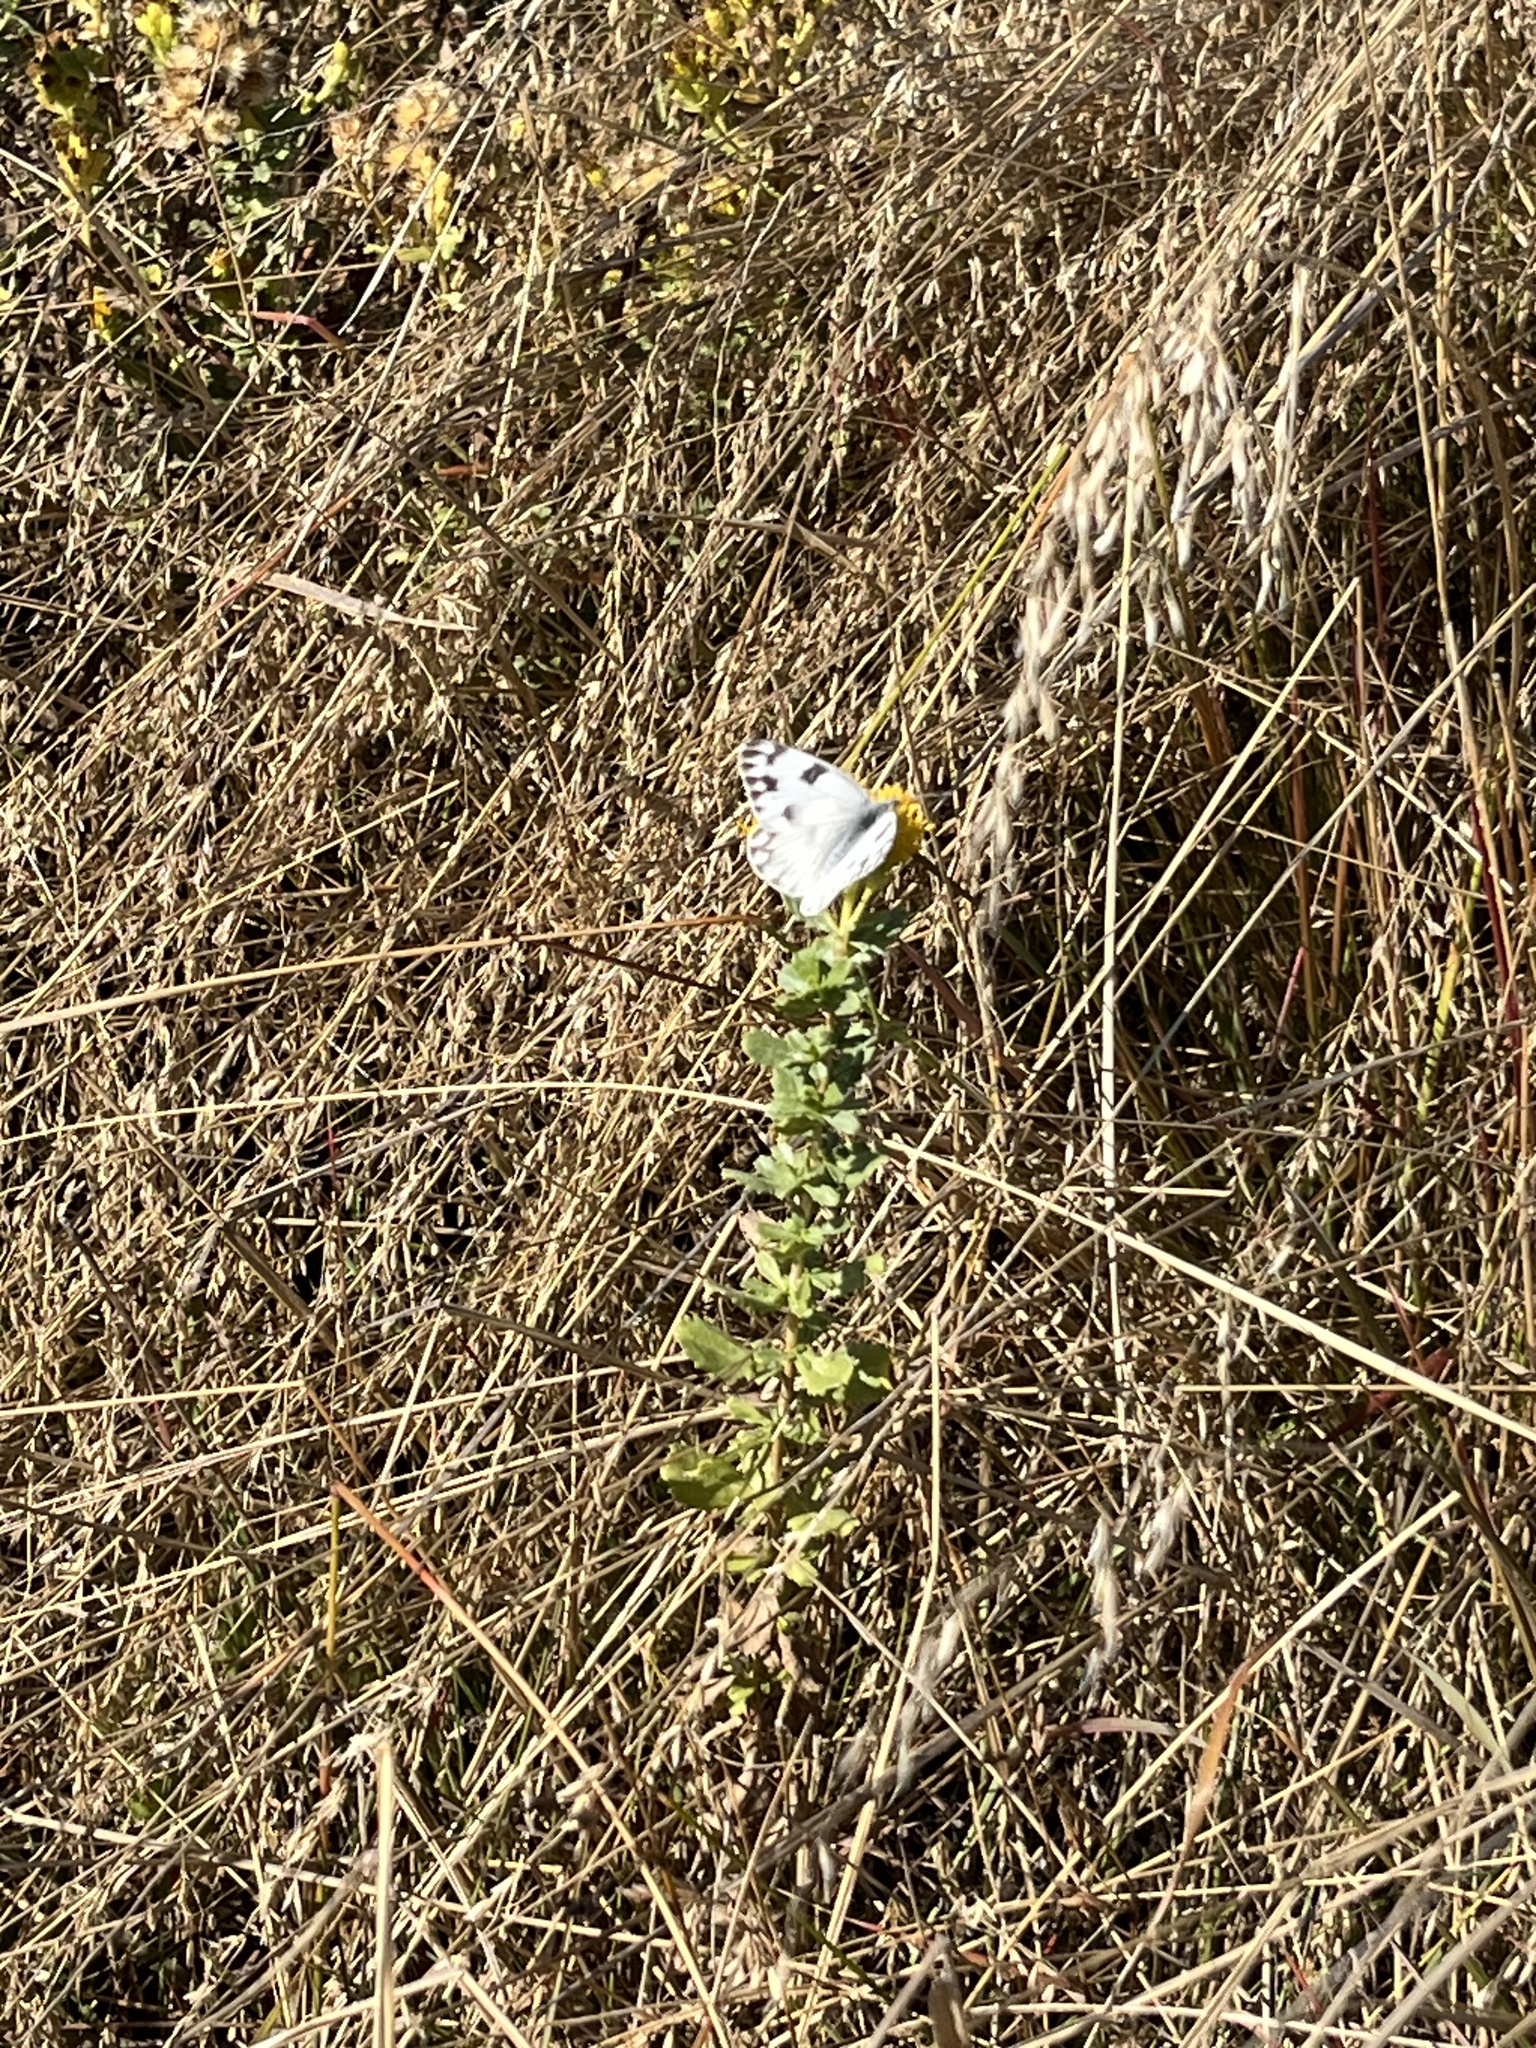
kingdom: Animalia
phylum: Arthropoda
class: Insecta
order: Lepidoptera
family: Pieridae
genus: Pontia
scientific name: Pontia protodice
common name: Checkered white
